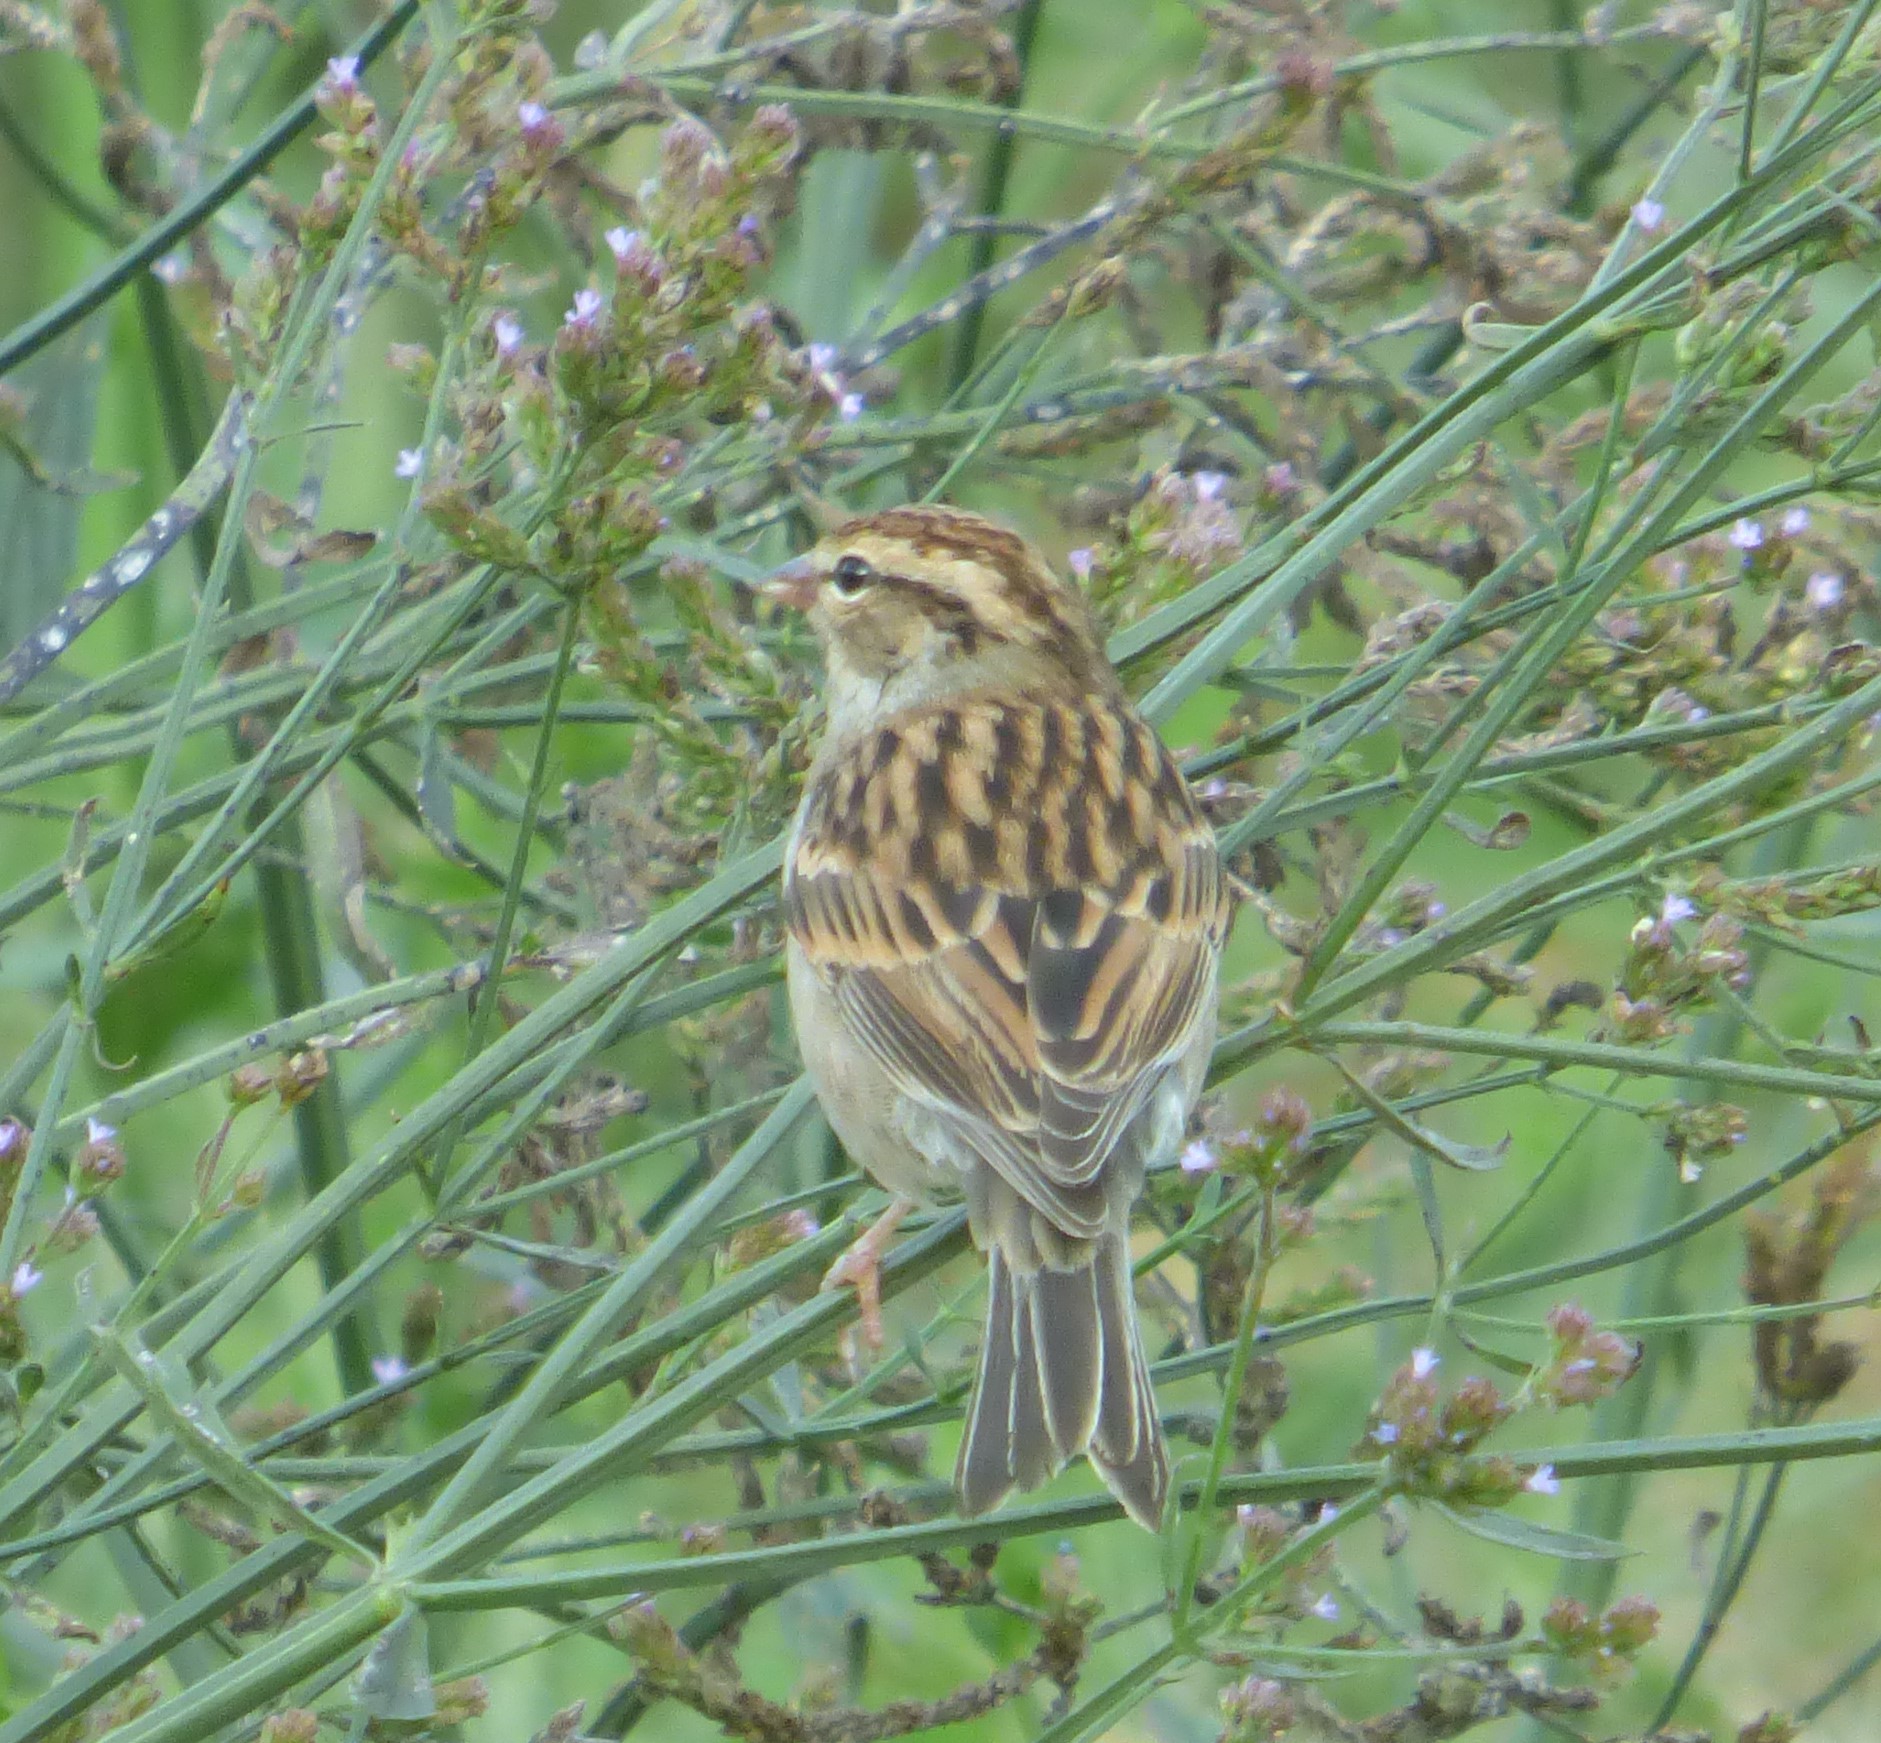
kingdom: Animalia
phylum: Chordata
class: Aves
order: Passeriformes
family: Passerellidae
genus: Spizella
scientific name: Spizella passerina
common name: Chipping sparrow
